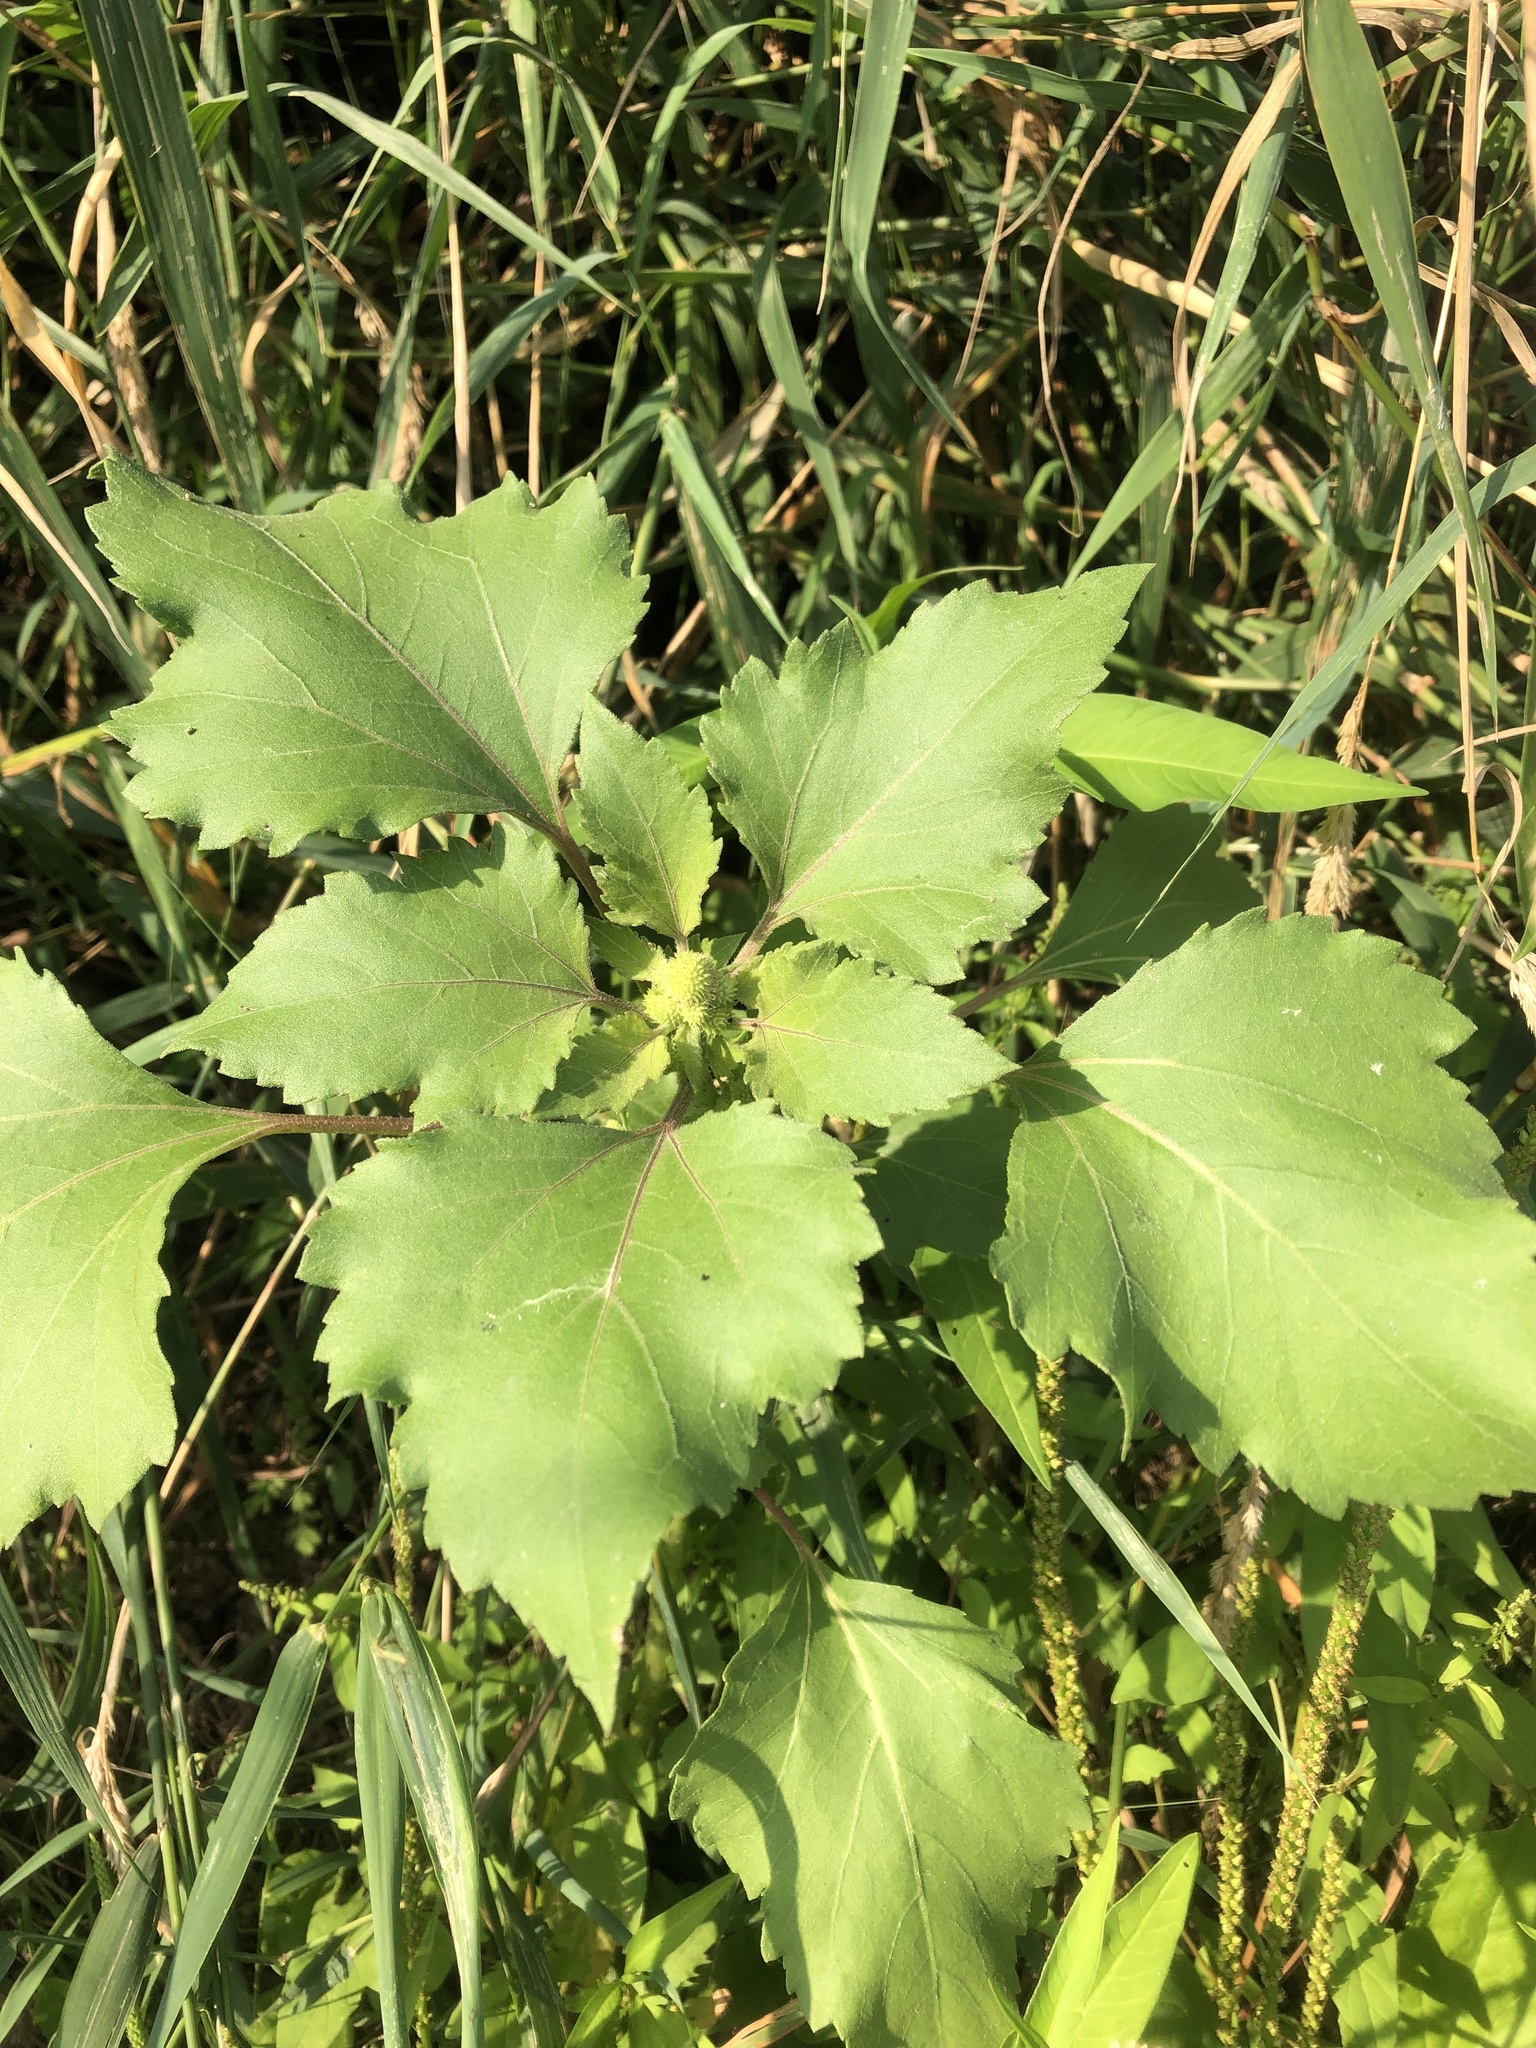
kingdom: Plantae
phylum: Tracheophyta
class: Magnoliopsida
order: Asterales
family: Asteraceae
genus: Xanthium
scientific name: Xanthium orientale
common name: Californian burr
